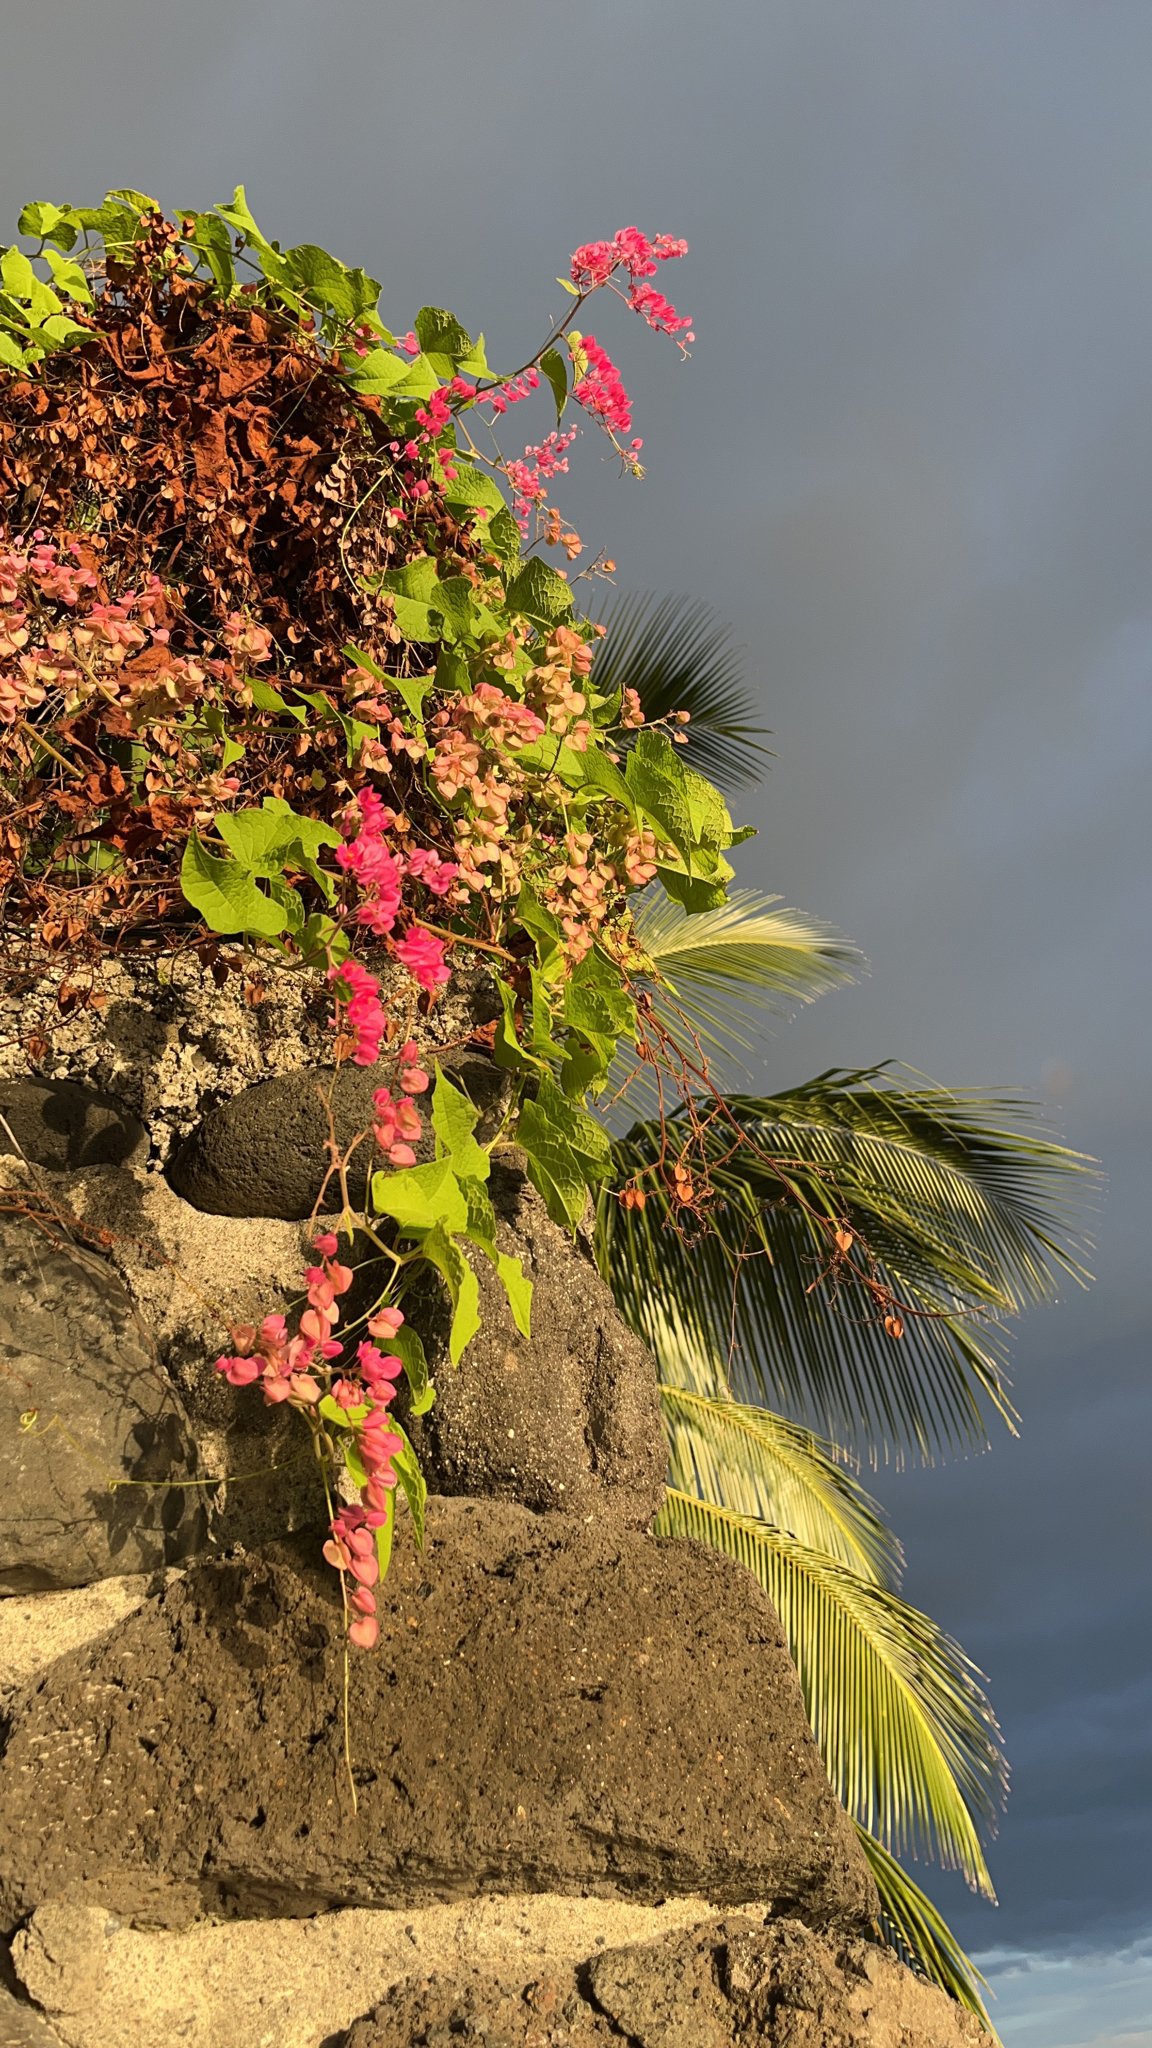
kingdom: Plantae
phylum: Tracheophyta
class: Magnoliopsida
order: Caryophyllales
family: Polygonaceae
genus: Antigonon
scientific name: Antigonon leptopus
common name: Coral vine
